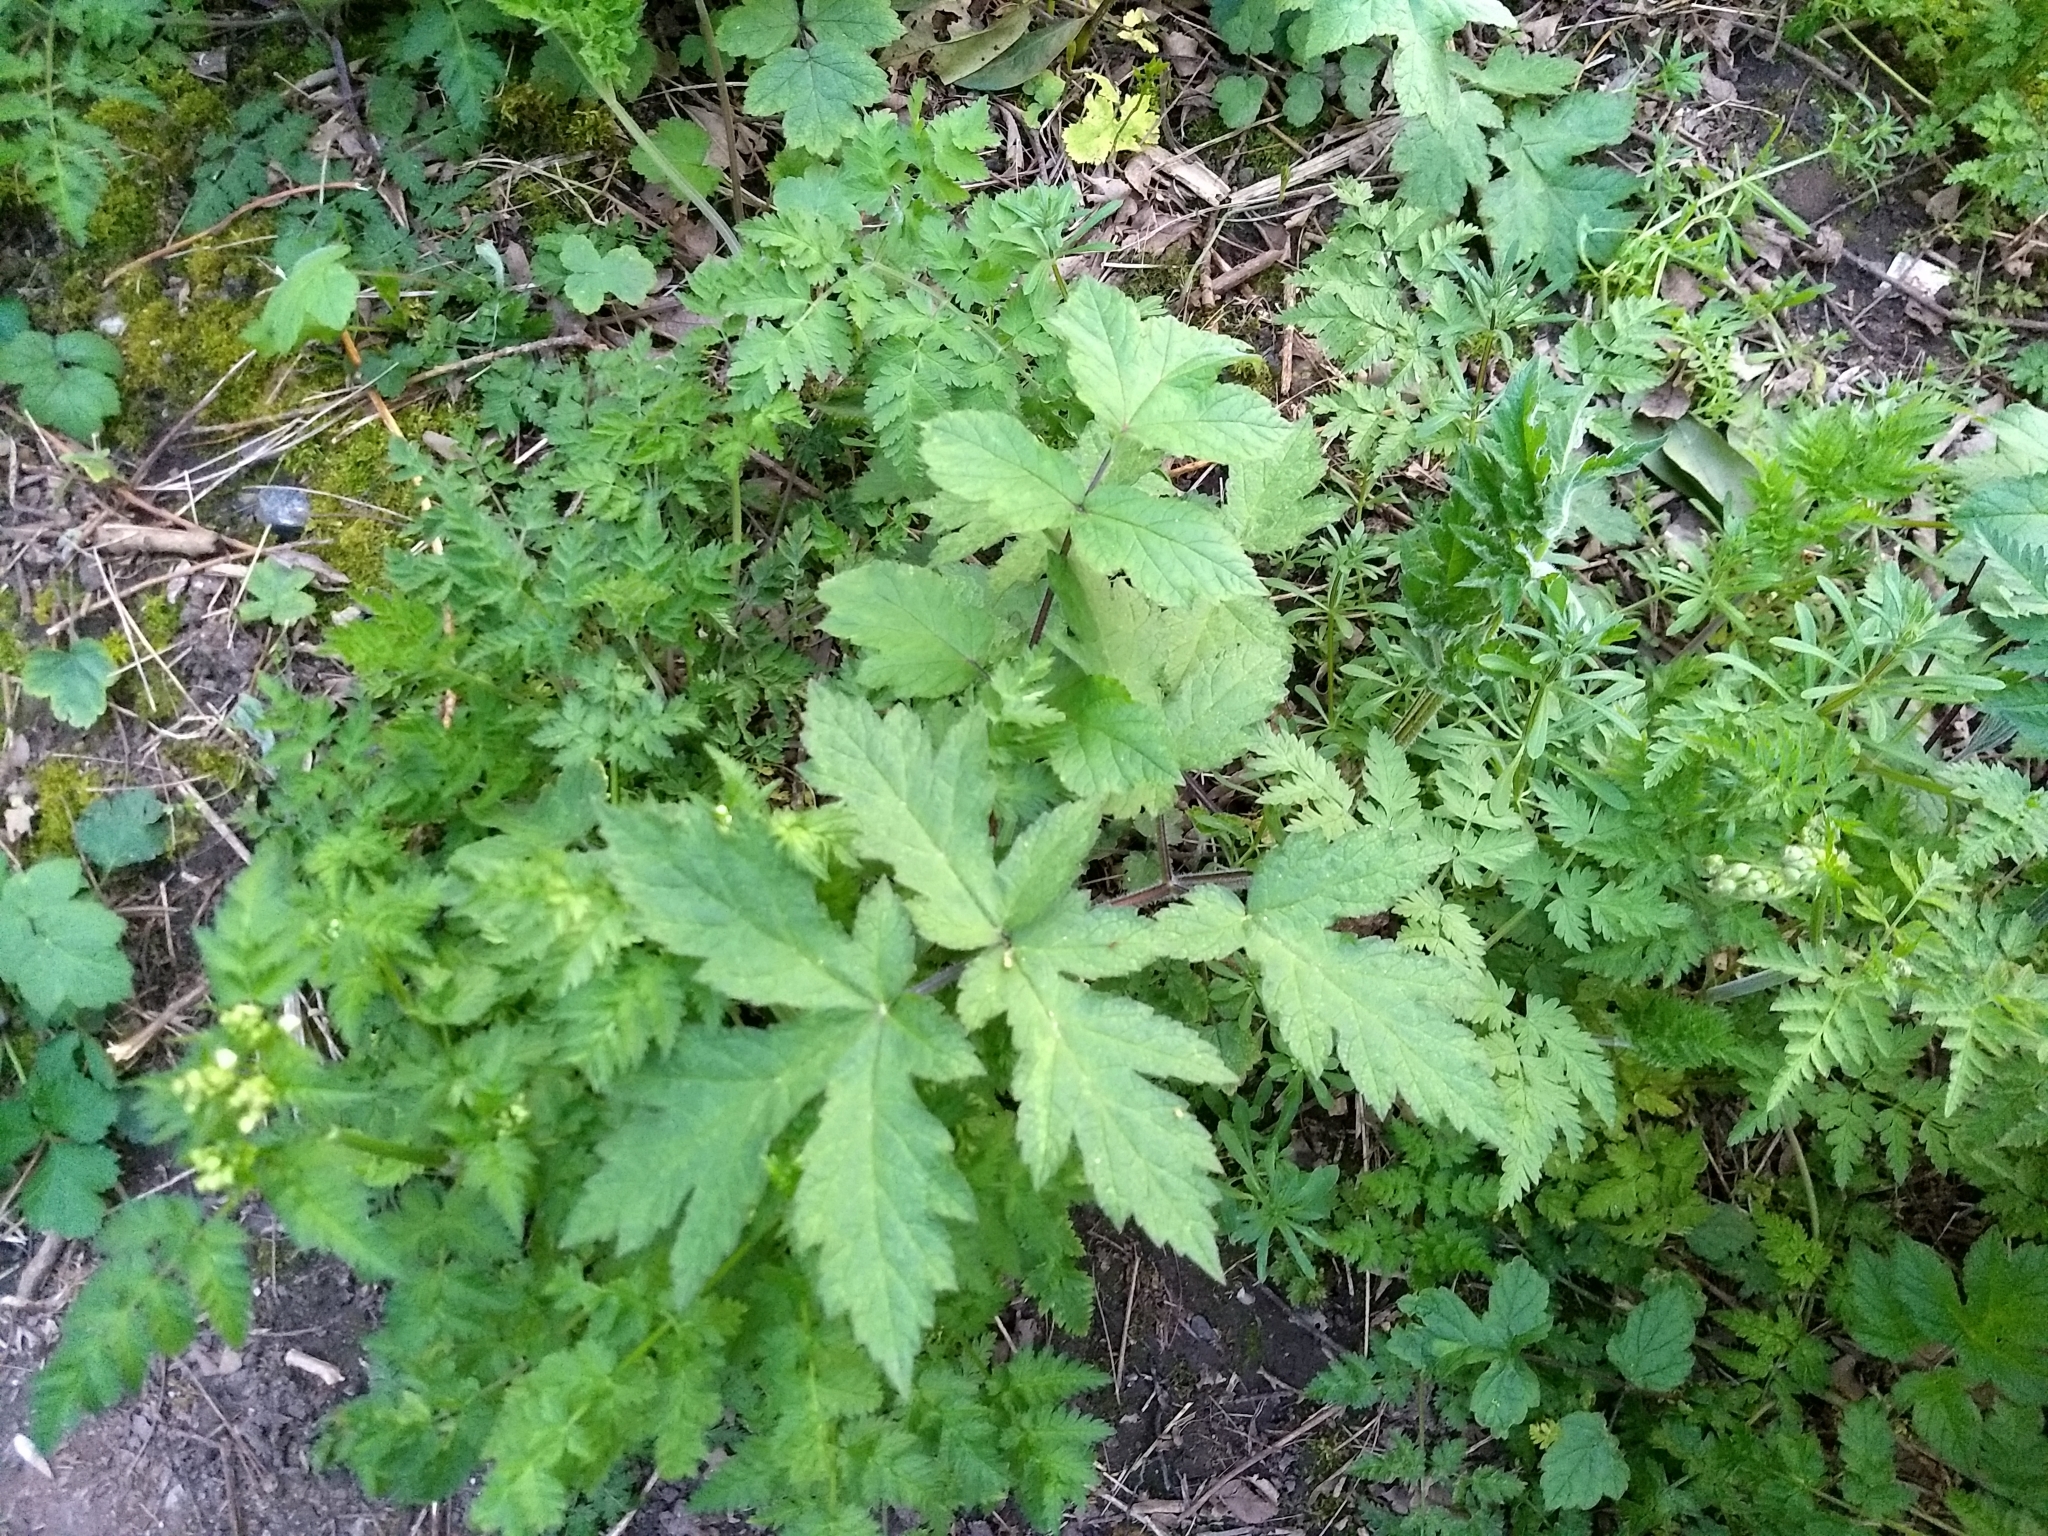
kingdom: Plantae
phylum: Tracheophyta
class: Magnoliopsida
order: Apiales
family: Apiaceae
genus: Heracleum
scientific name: Heracleum sphondylium
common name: Hogweed
